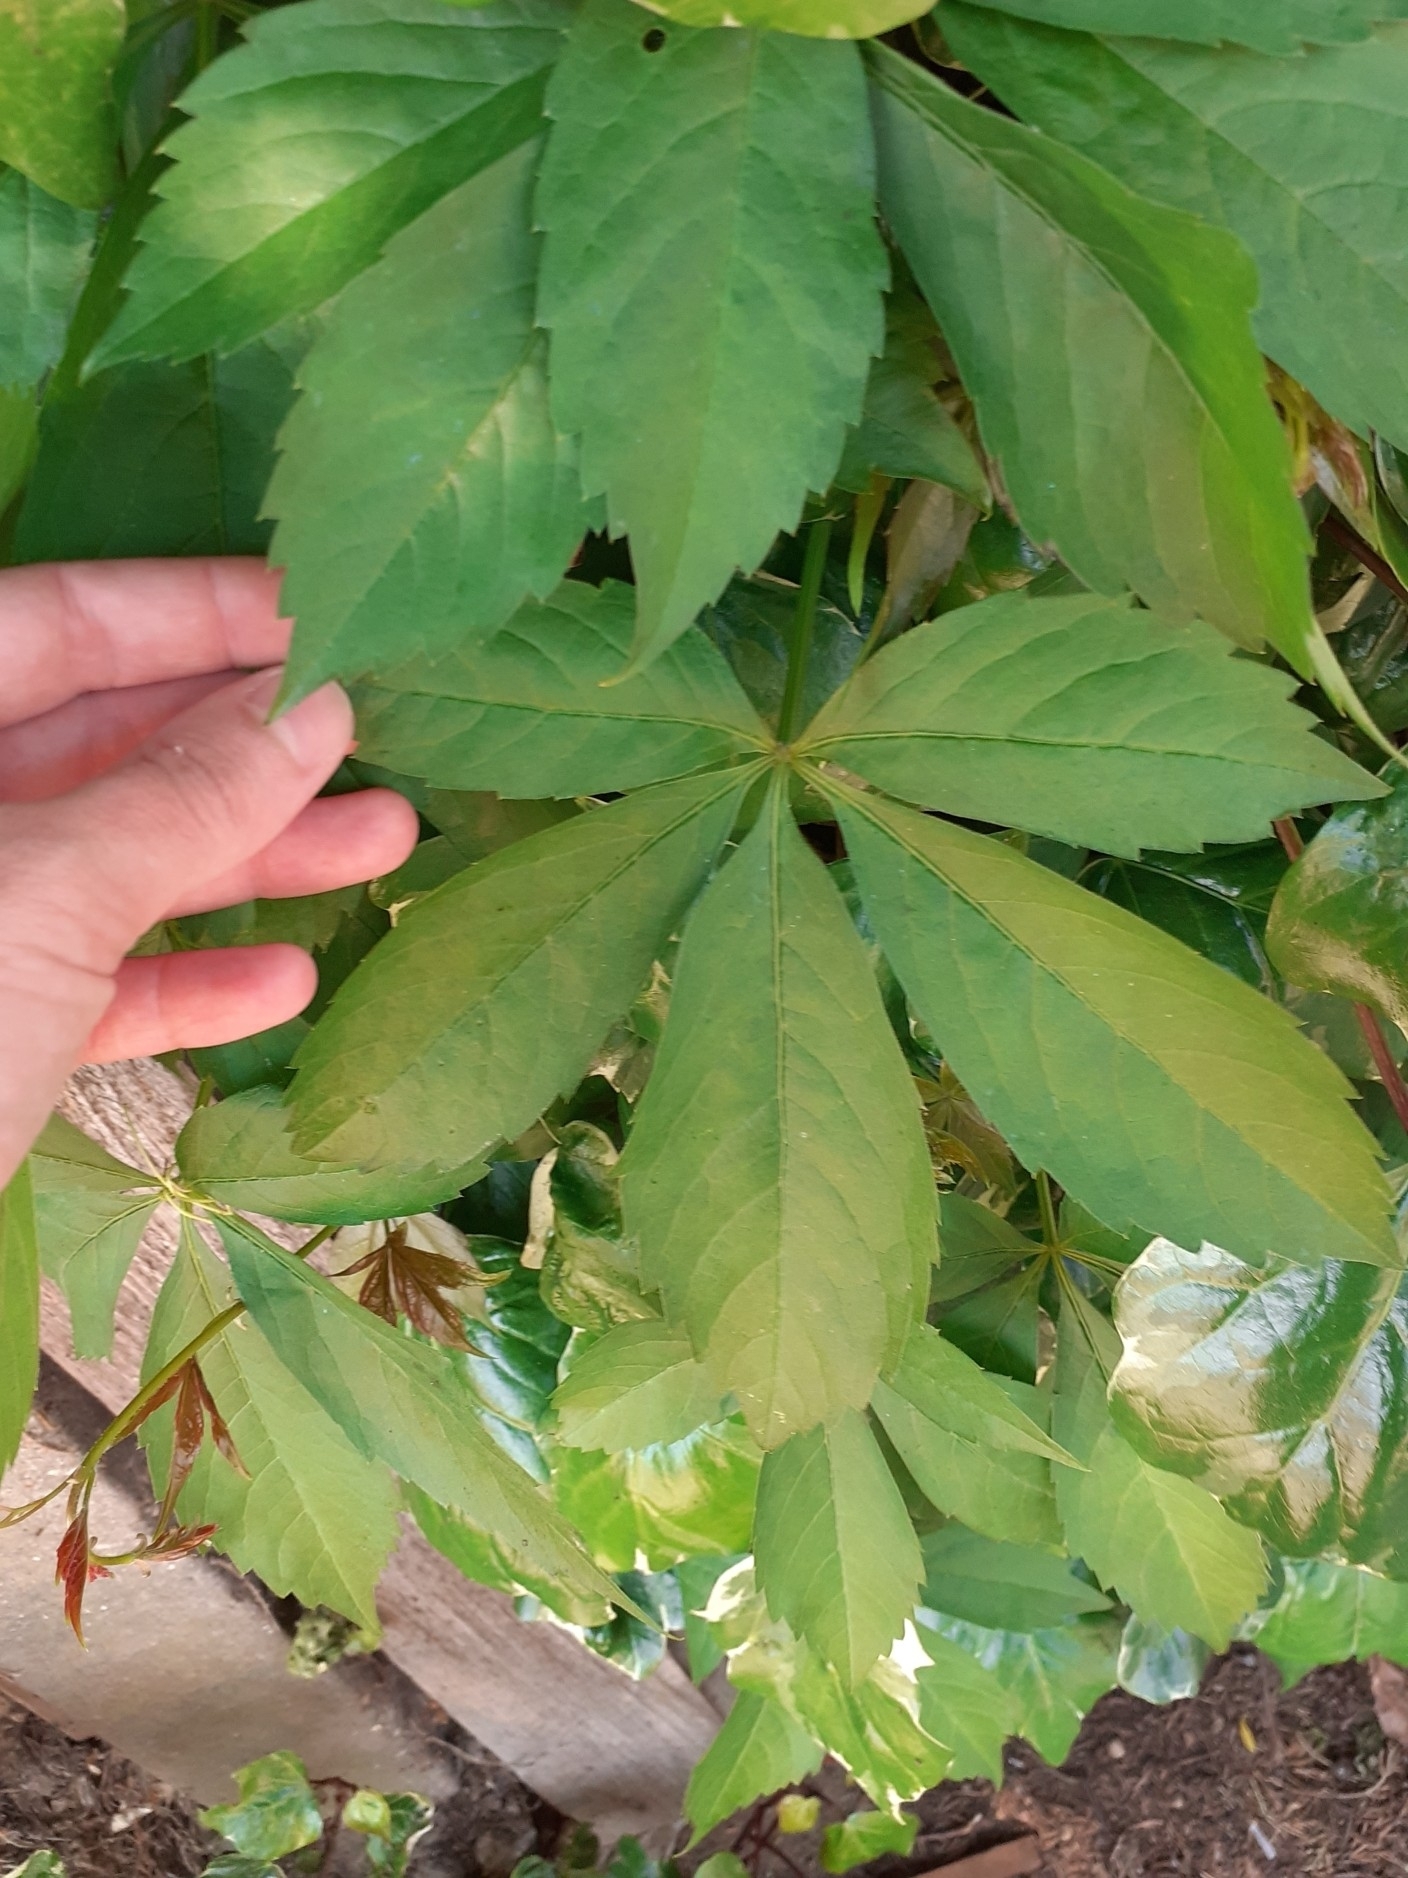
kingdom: Plantae
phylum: Tracheophyta
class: Magnoliopsida
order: Vitales
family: Vitaceae
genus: Parthenocissus
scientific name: Parthenocissus quinquefolia
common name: Virginia-creeper
